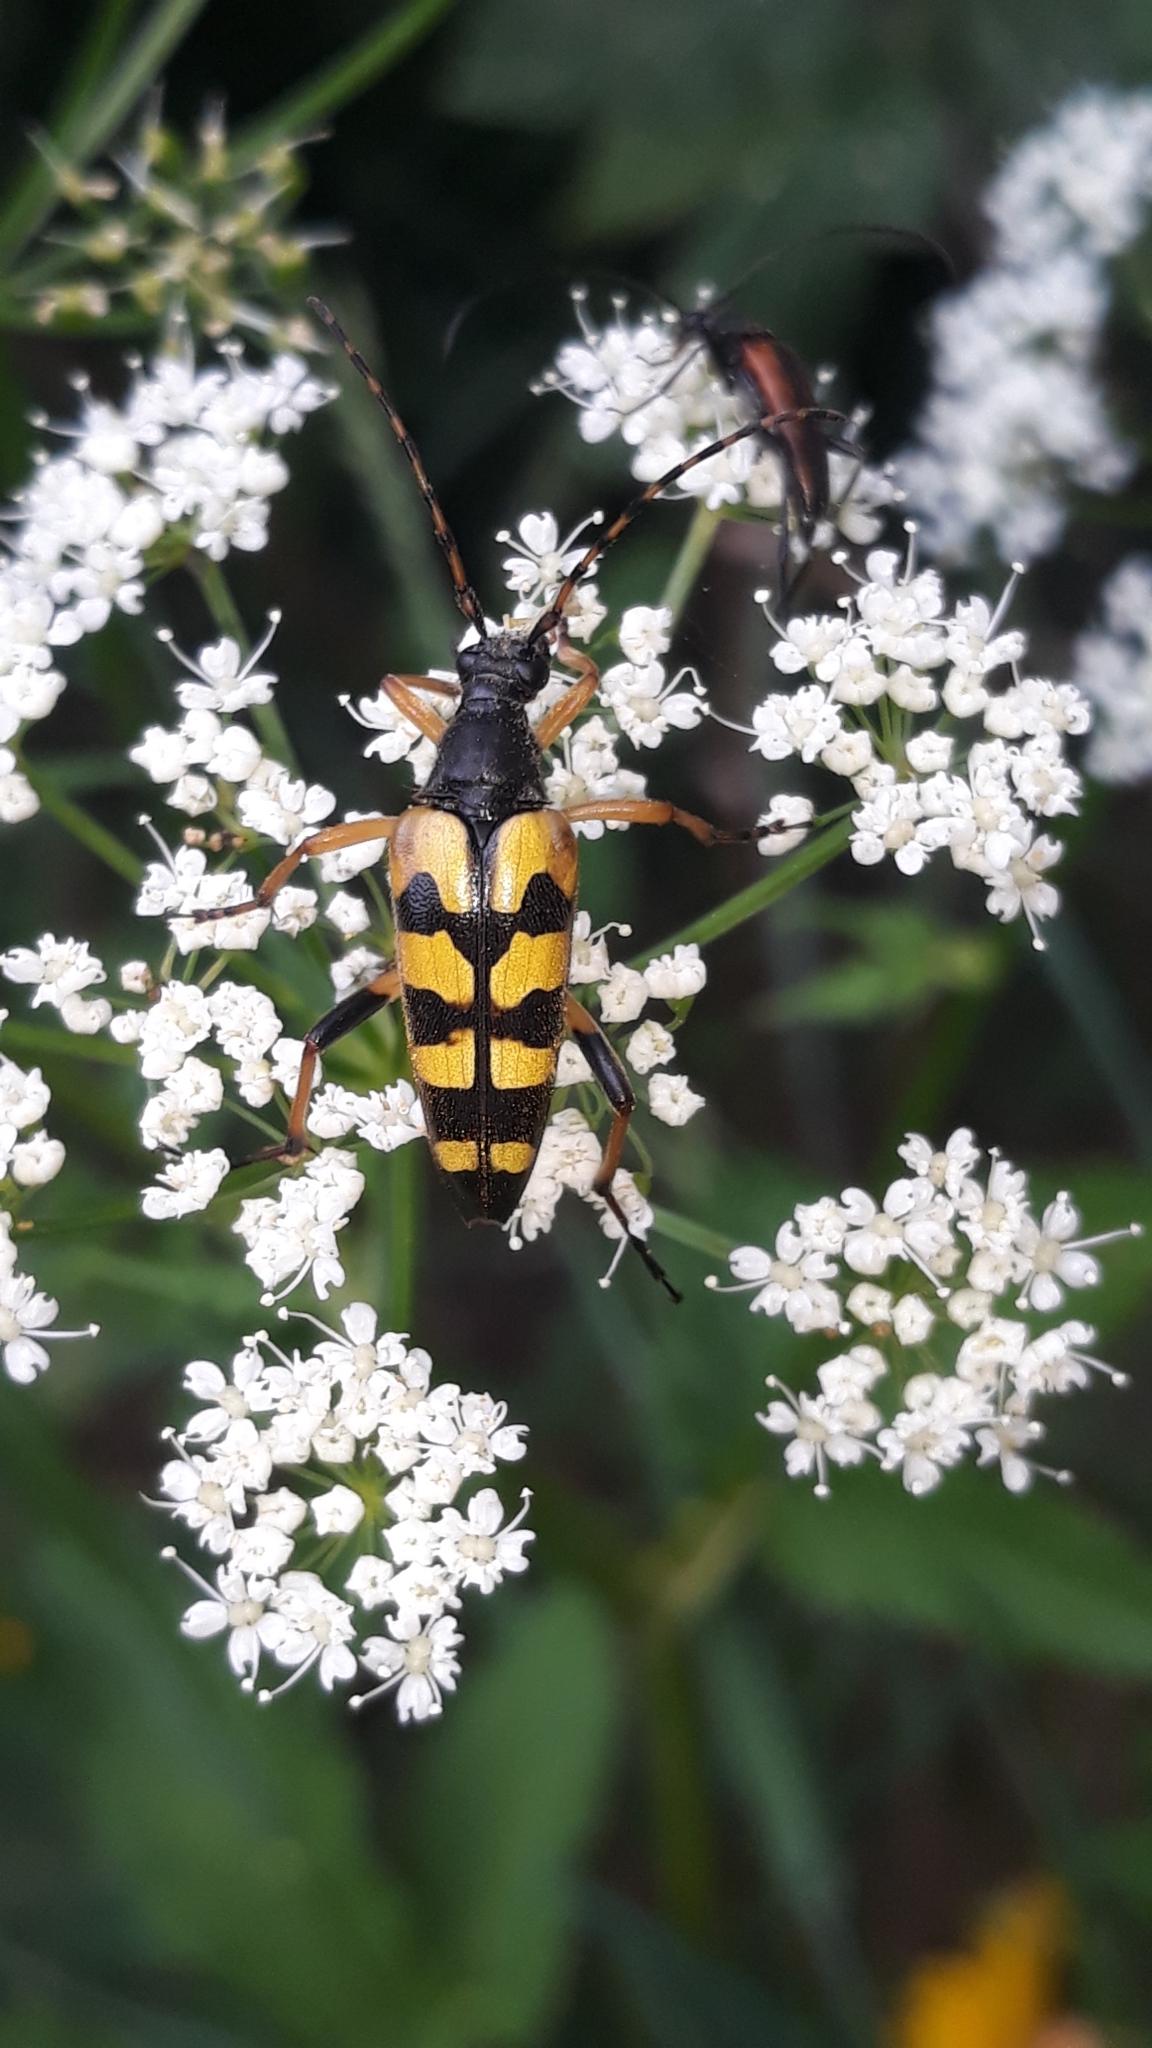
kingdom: Animalia
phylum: Arthropoda
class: Insecta
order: Coleoptera
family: Cerambycidae
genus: Rutpela
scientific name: Rutpela maculata
